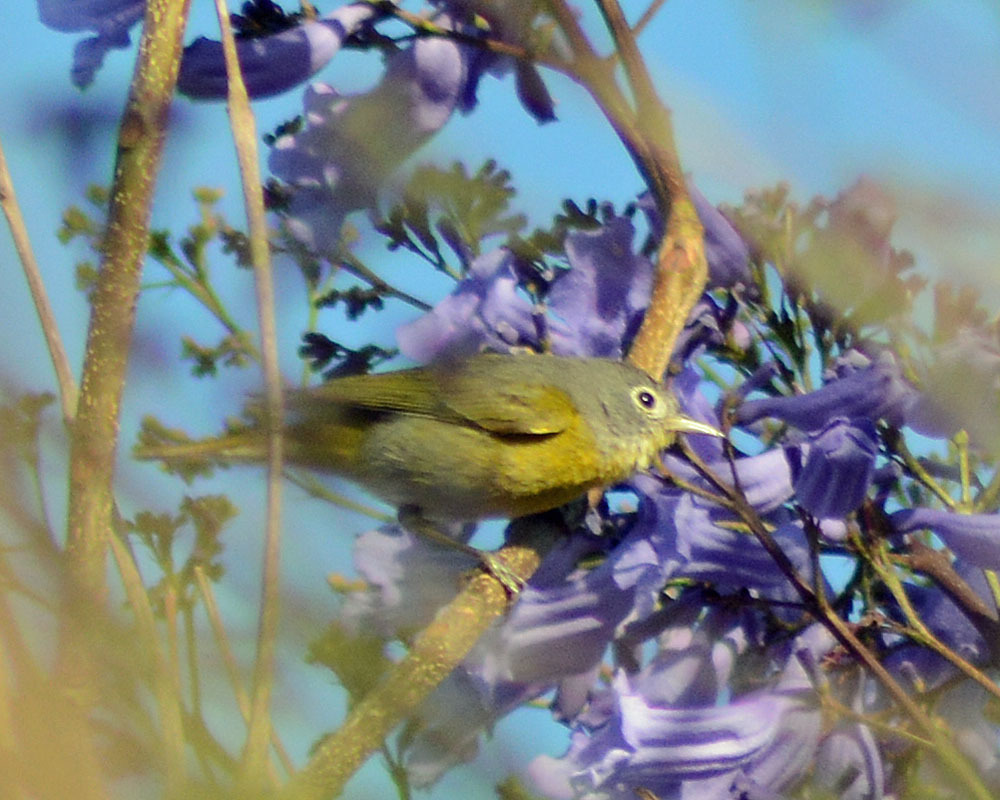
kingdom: Animalia
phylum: Chordata
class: Aves
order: Passeriformes
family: Parulidae
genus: Leiothlypis
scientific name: Leiothlypis ruficapilla
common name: Nashville warbler
